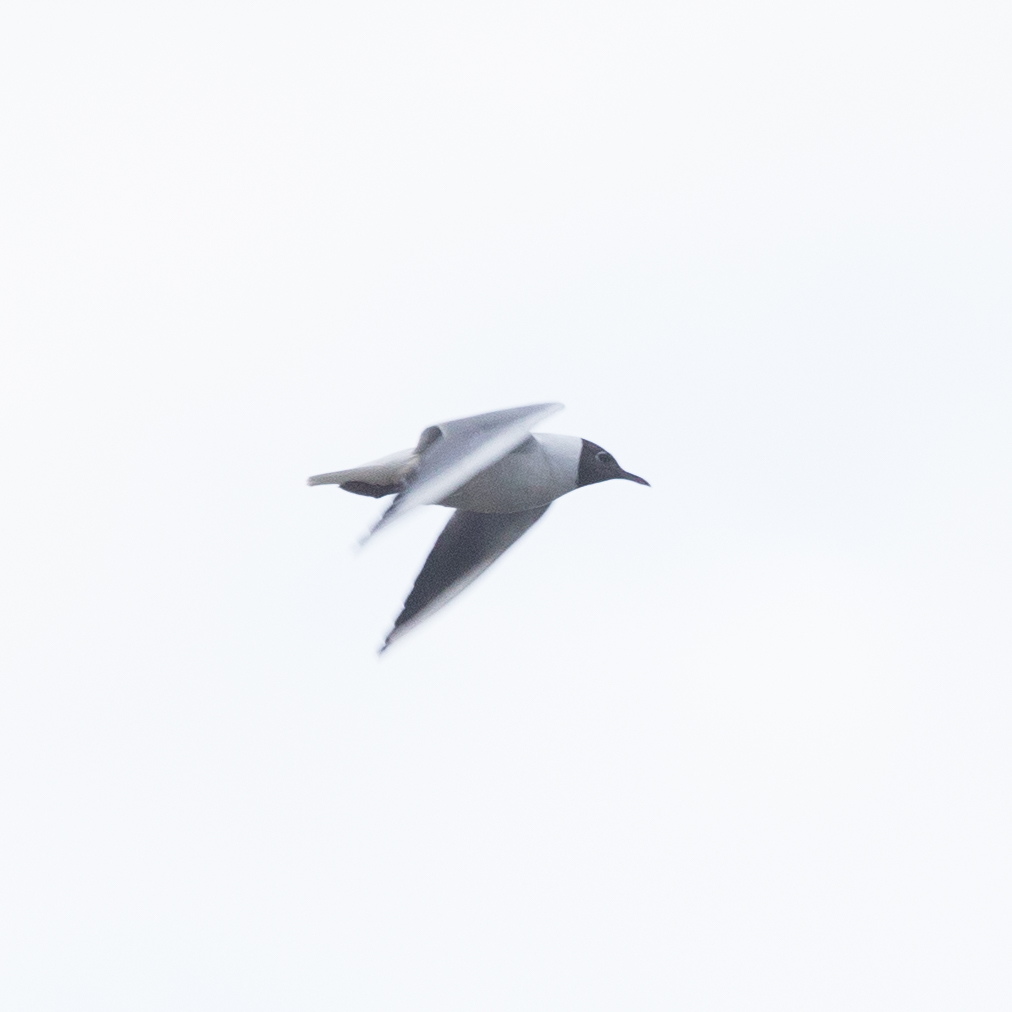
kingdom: Animalia
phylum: Chordata
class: Aves
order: Charadriiformes
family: Laridae
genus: Chroicocephalus
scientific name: Chroicocephalus ridibundus
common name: Black-headed gull
